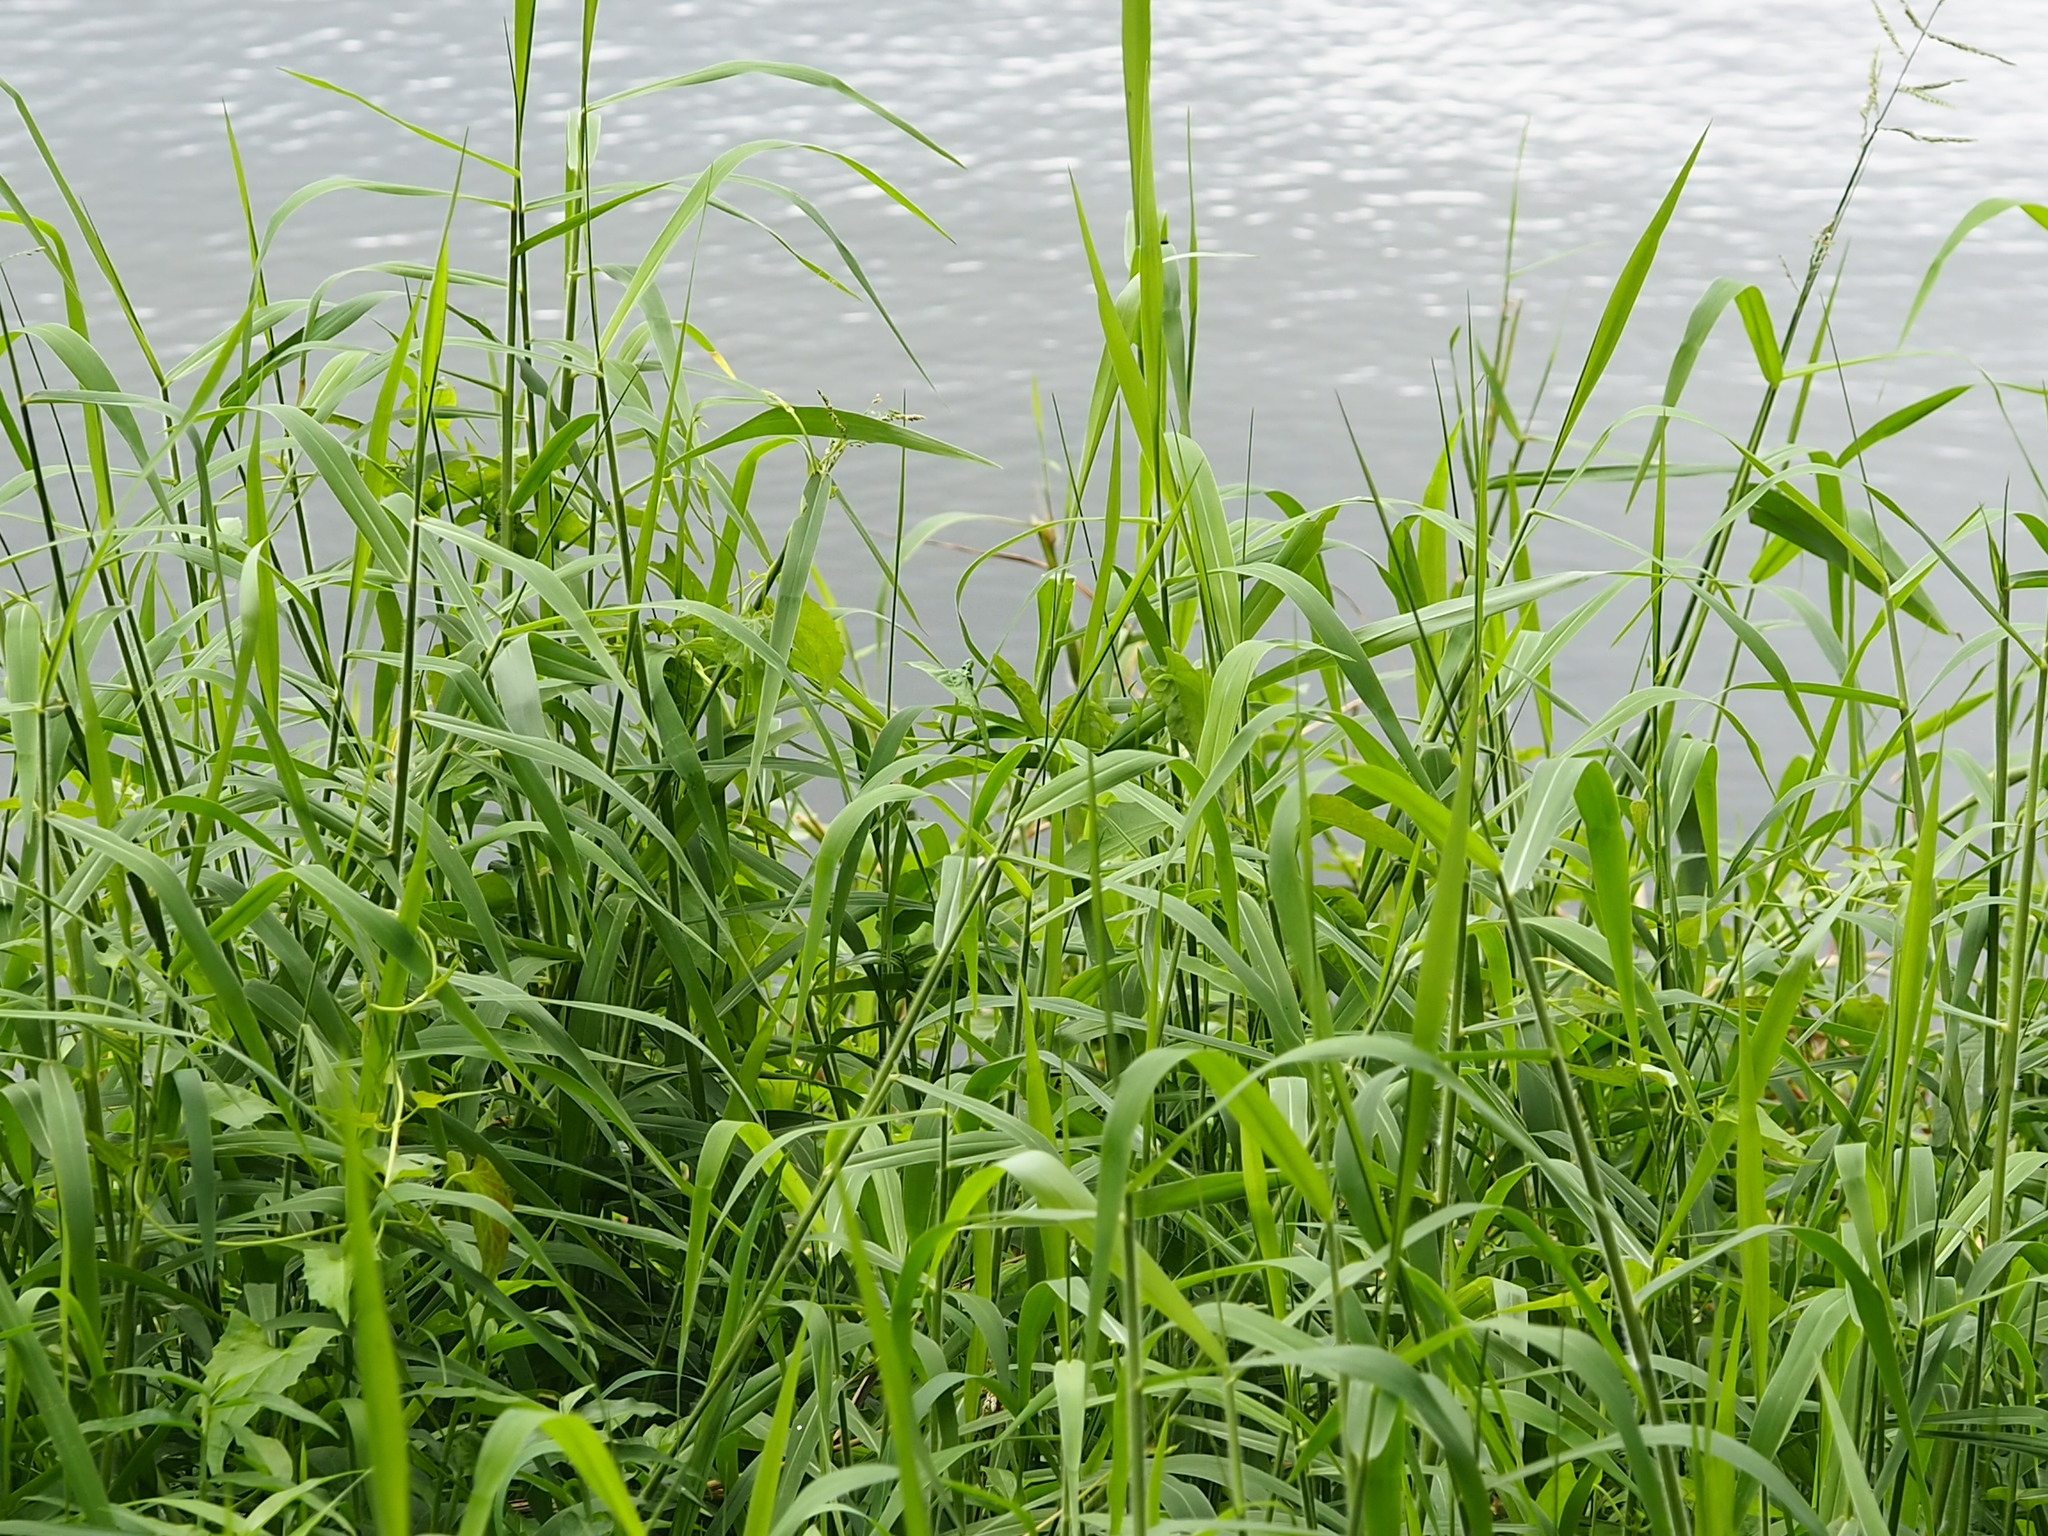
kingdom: Plantae
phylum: Tracheophyta
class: Liliopsida
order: Poales
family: Poaceae
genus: Urochloa
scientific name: Urochloa mutica
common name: Para grass
